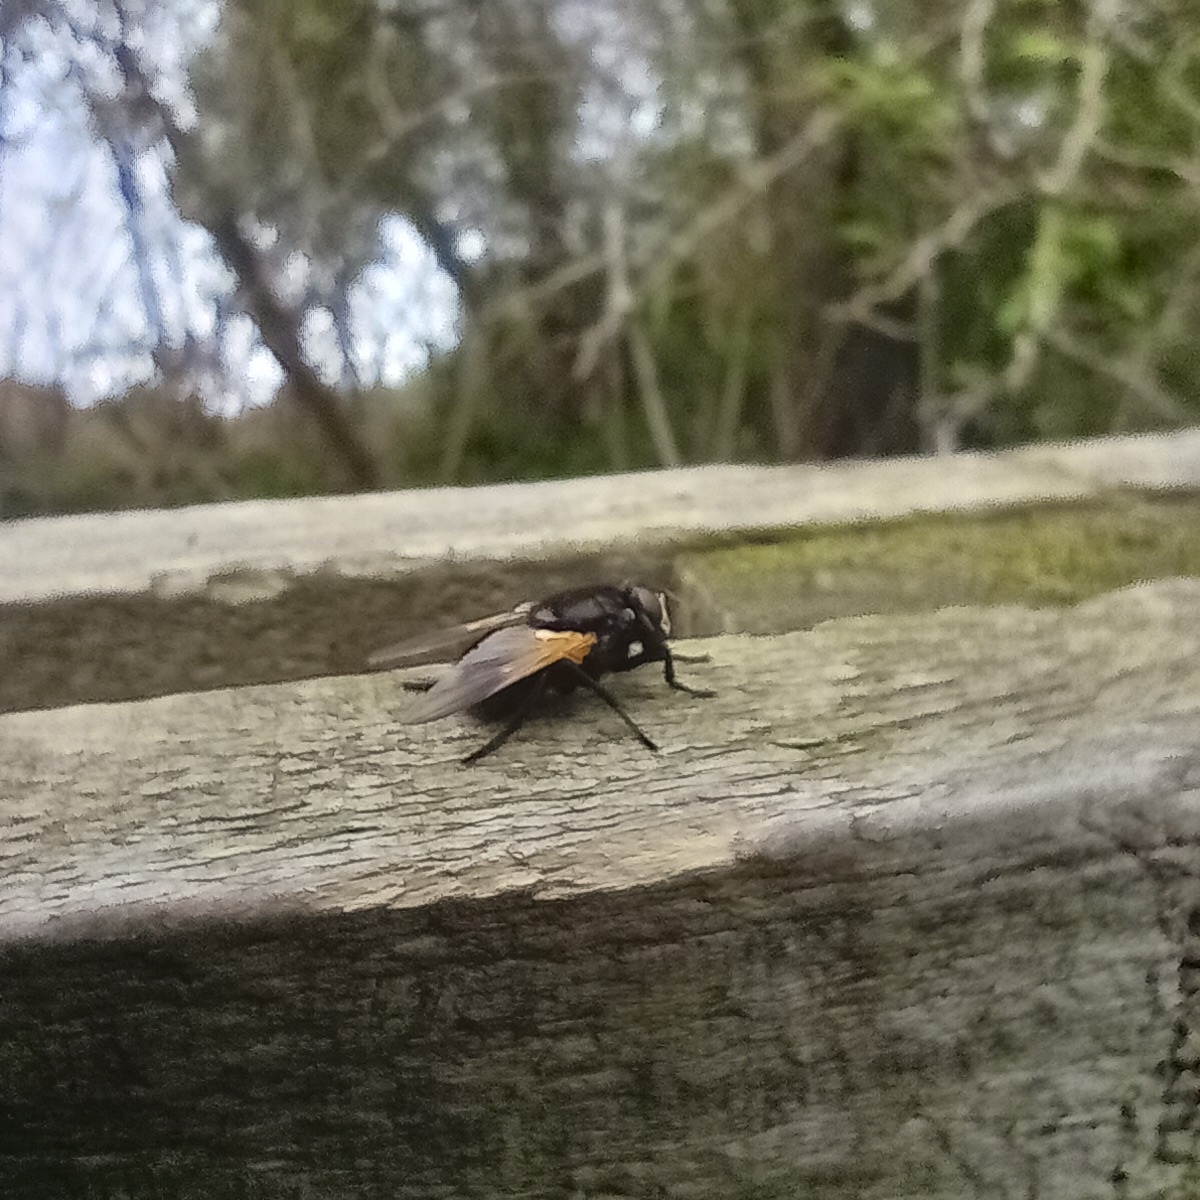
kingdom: Animalia
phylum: Arthropoda
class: Insecta
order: Diptera
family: Muscidae
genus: Mesembrina
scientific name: Mesembrina meridiana
